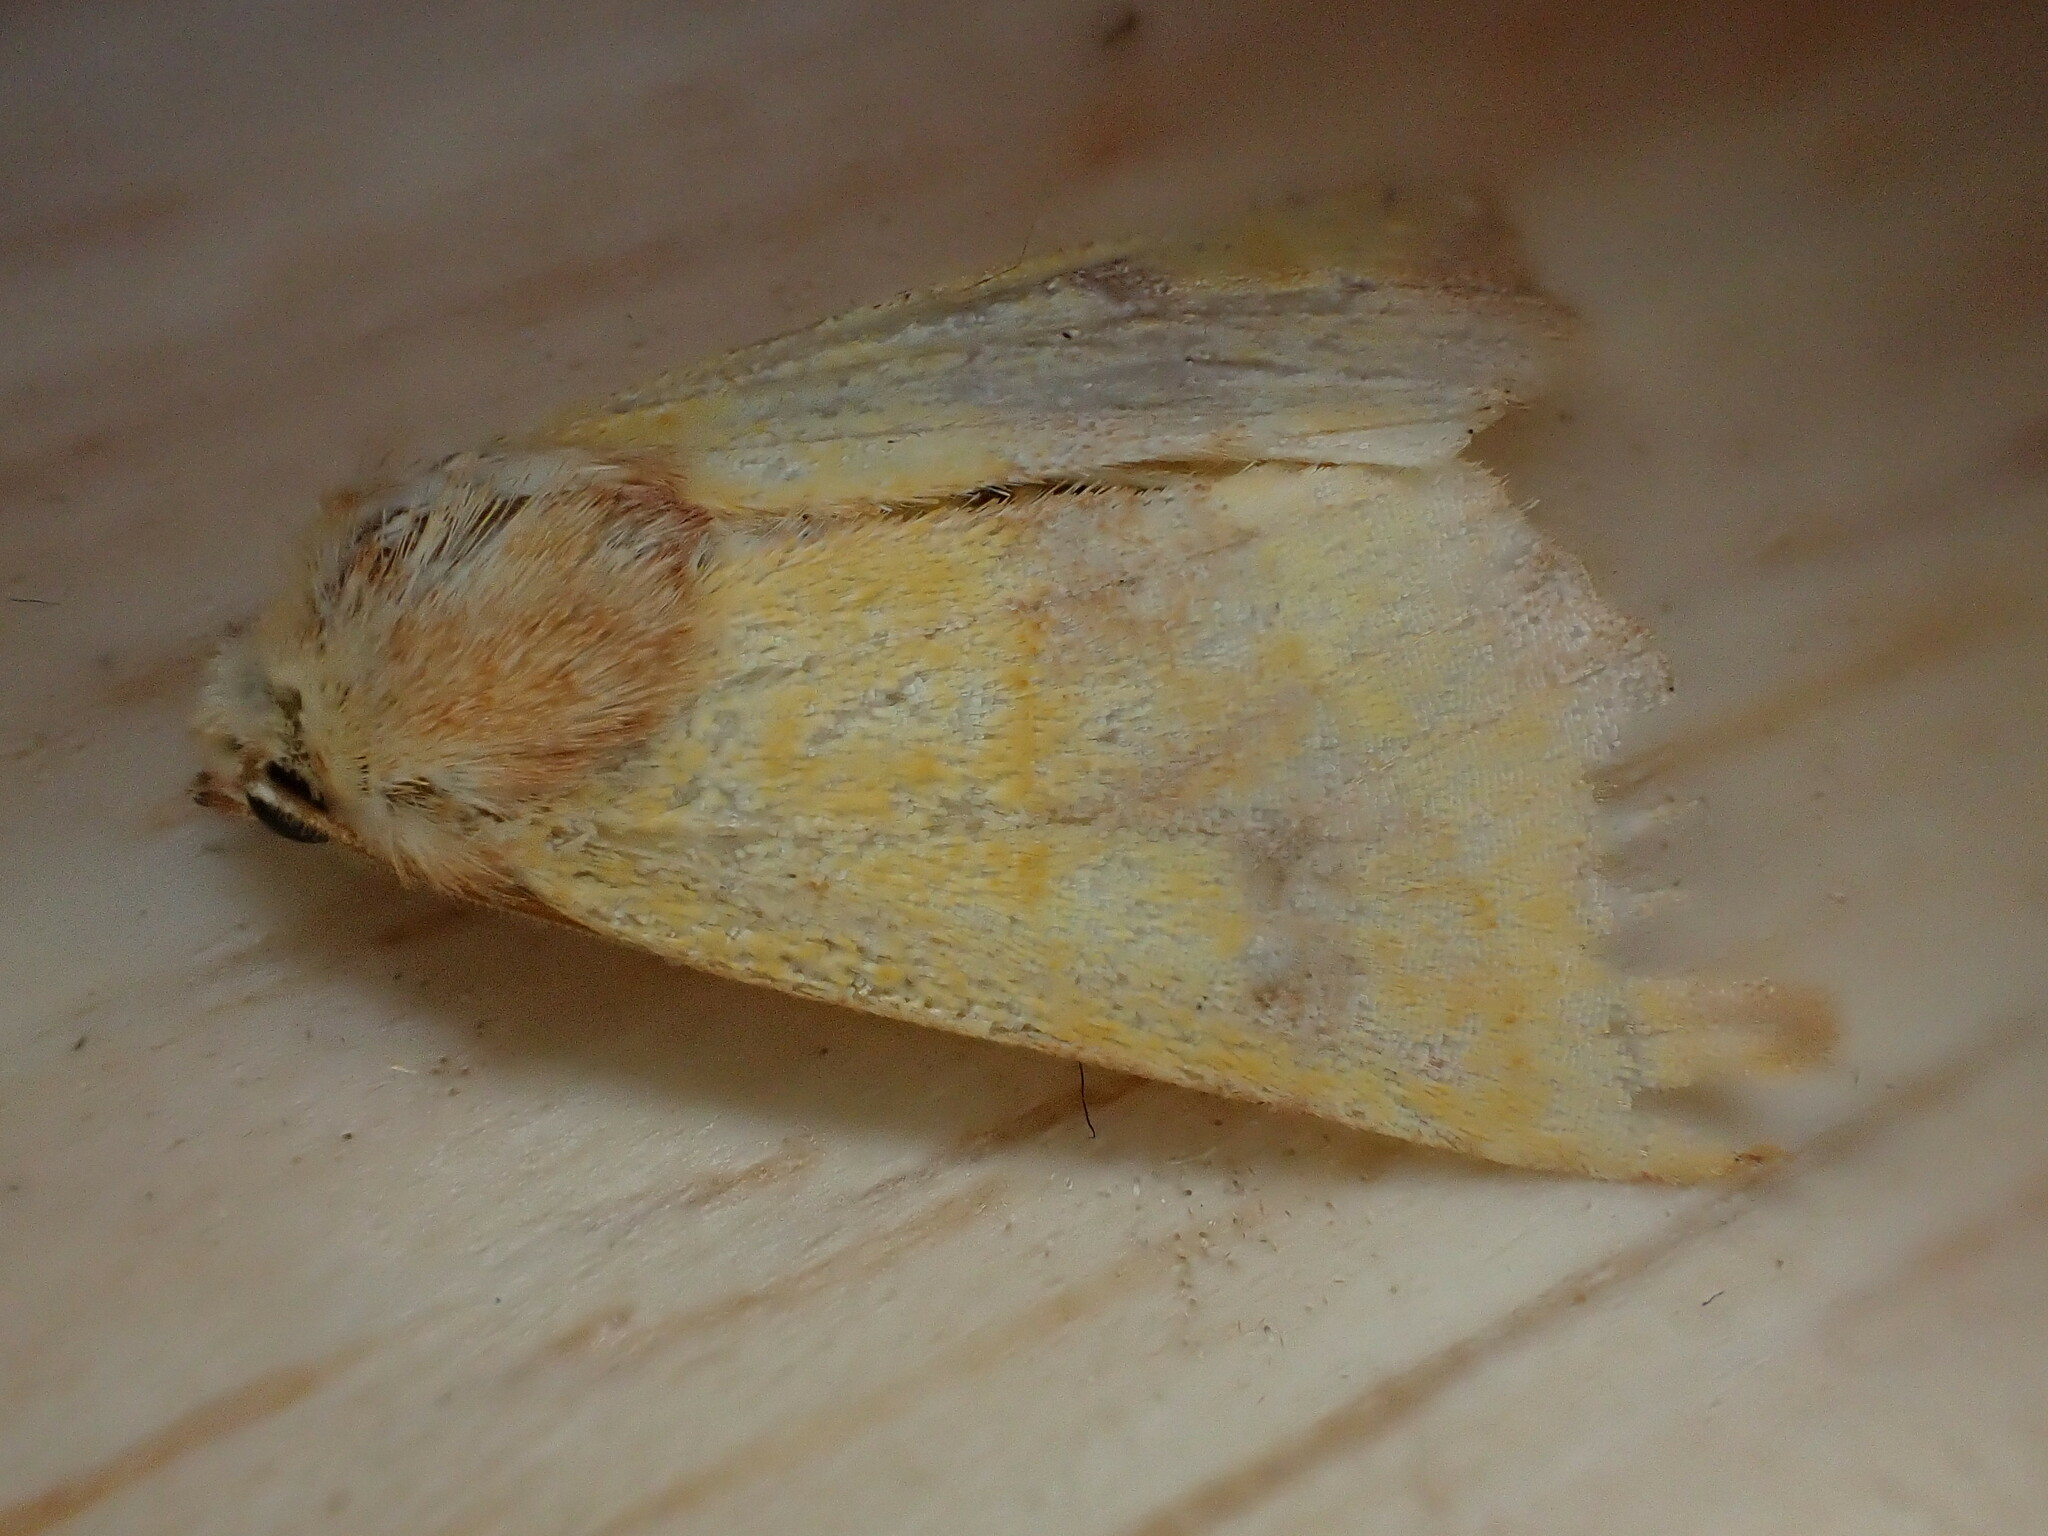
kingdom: Animalia
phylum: Arthropoda
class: Insecta
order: Lepidoptera
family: Noctuidae
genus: Atethmia
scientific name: Atethmia centrago
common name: Centre-barred sallow
